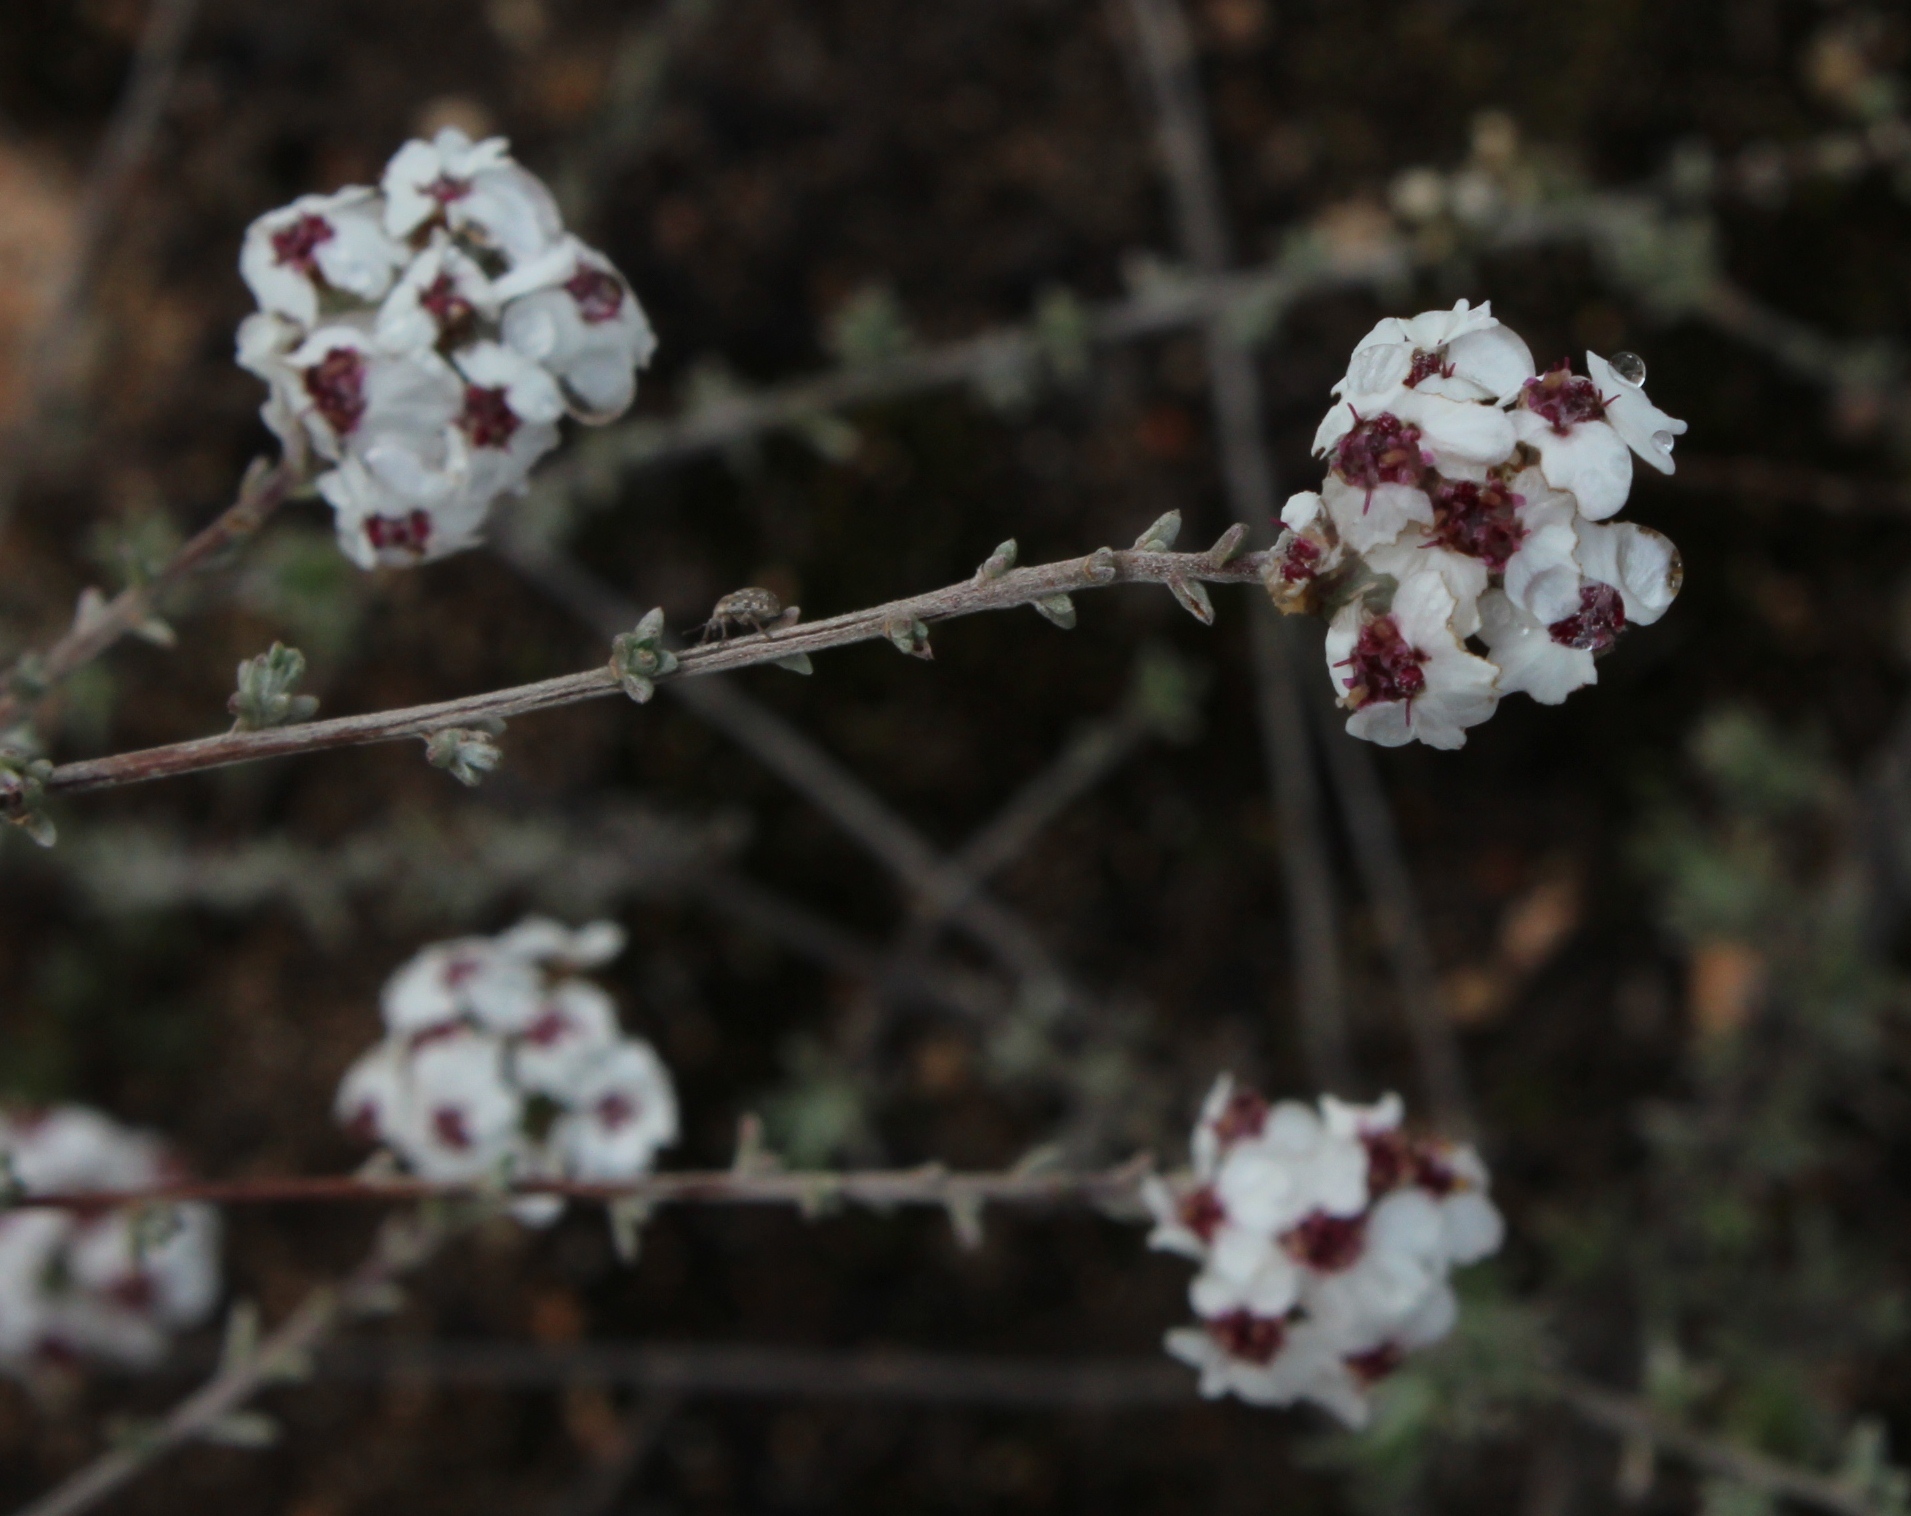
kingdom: Plantae
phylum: Tracheophyta
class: Magnoliopsida
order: Asterales
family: Asteraceae
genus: Eriocephalus
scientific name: Eriocephalus africanus
